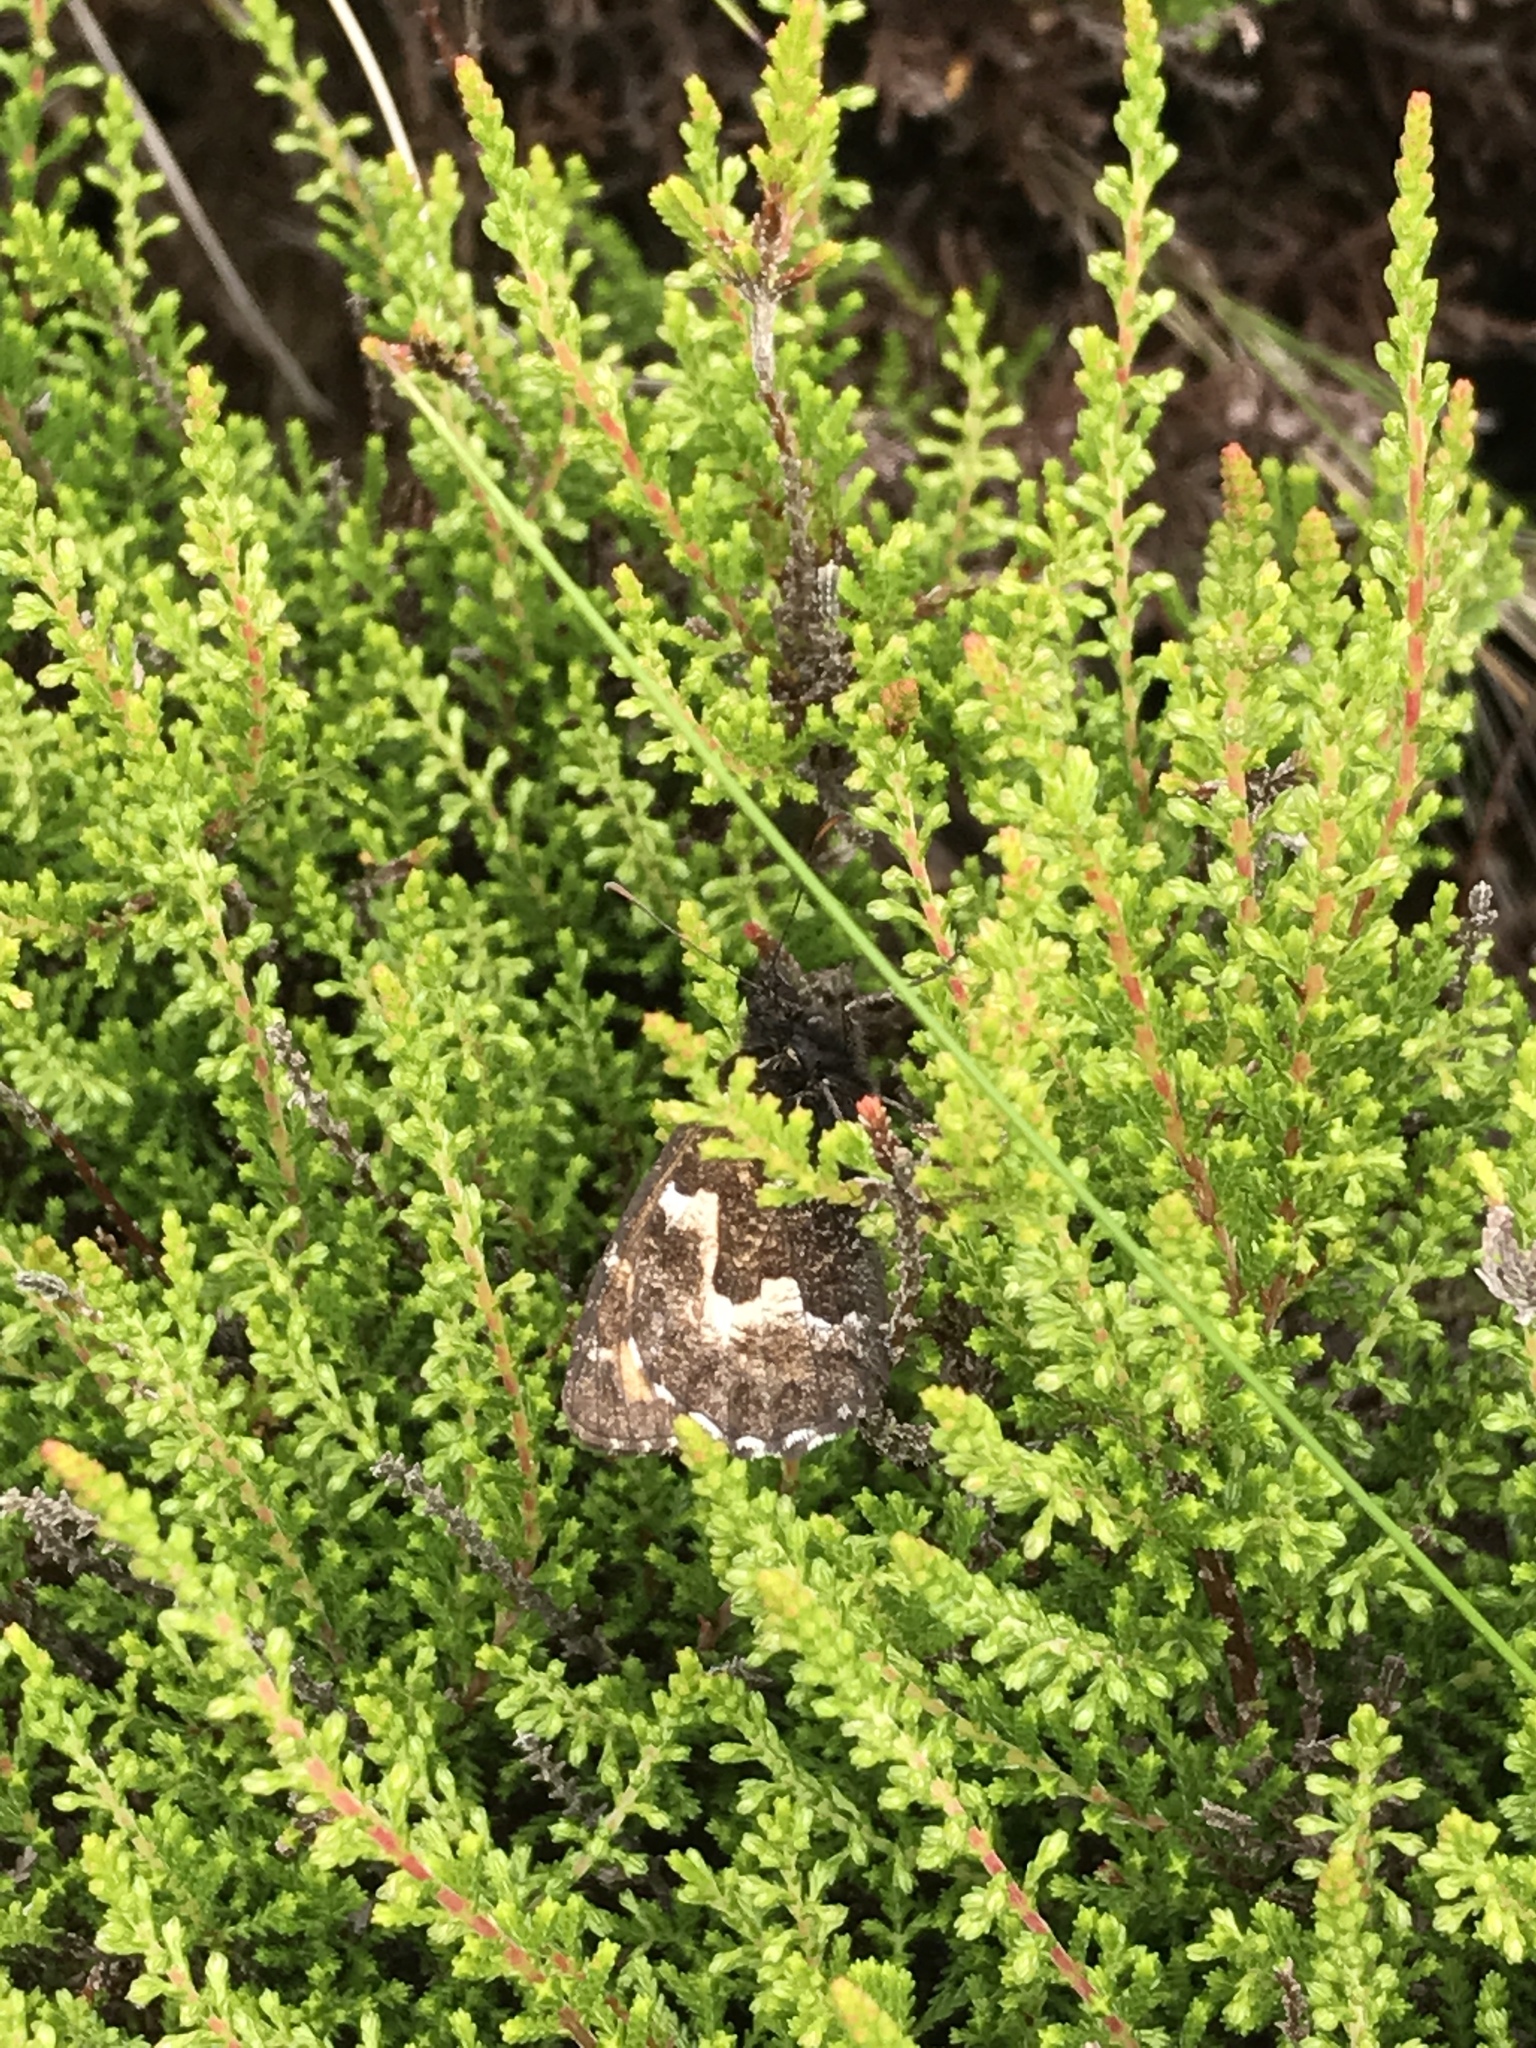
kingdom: Animalia
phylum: Arthropoda
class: Insecta
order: Lepidoptera
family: Nymphalidae
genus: Hipparchia
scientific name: Hipparchia azorinus
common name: Azores grayling
